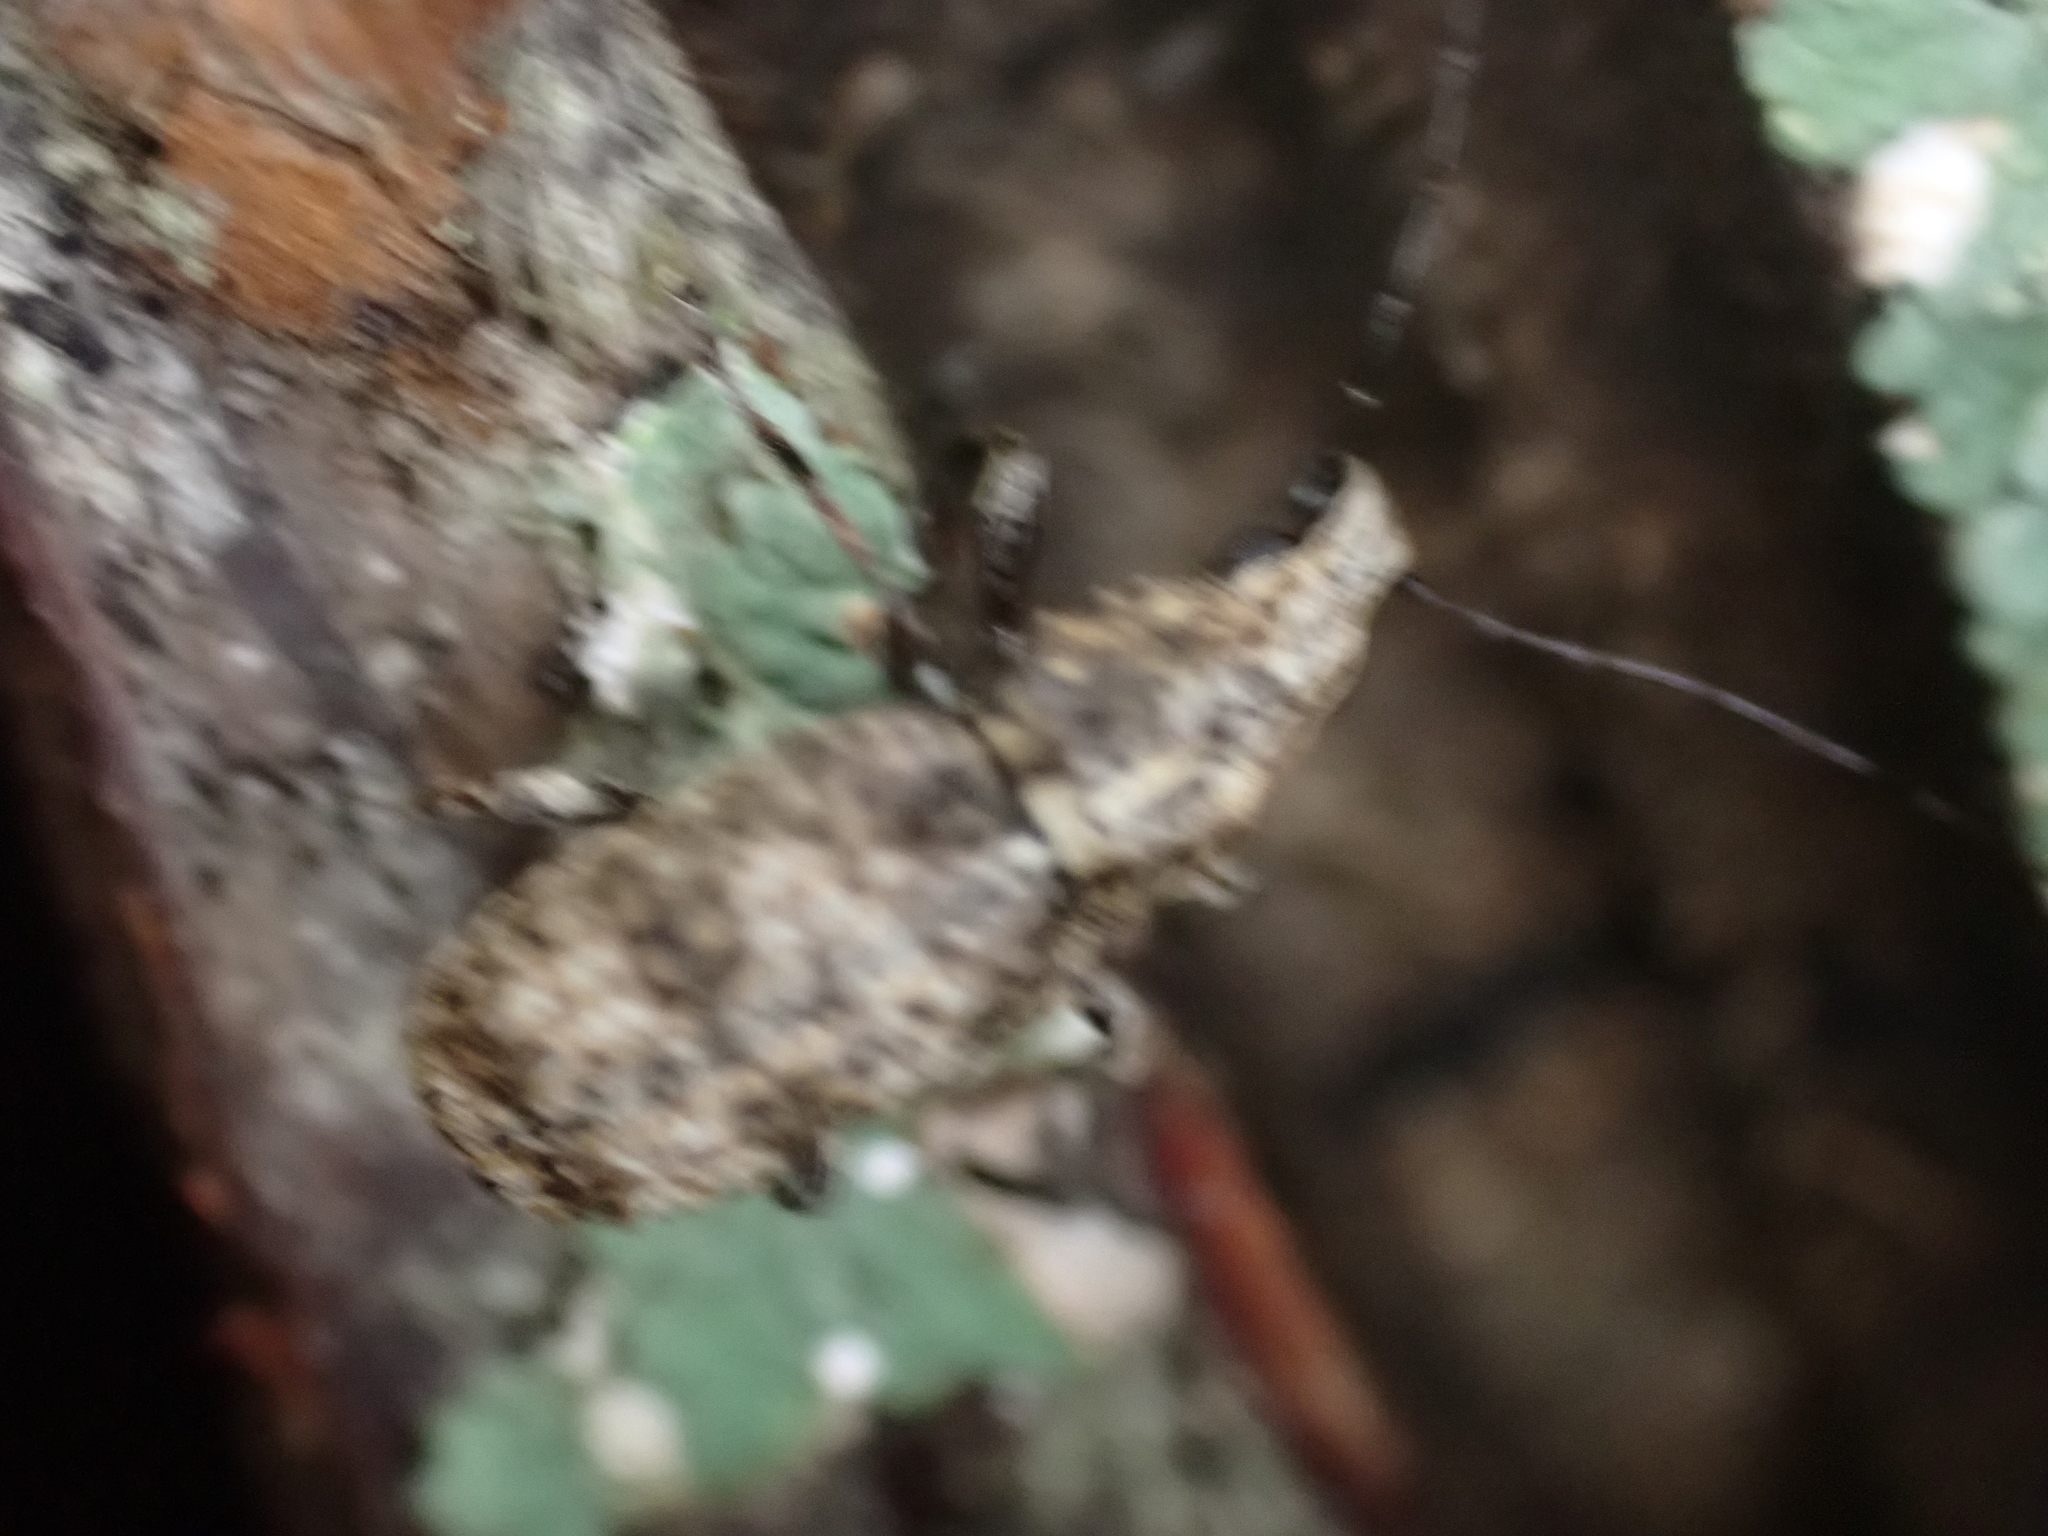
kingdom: Animalia
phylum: Arthropoda
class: Insecta
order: Coleoptera
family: Anthribidae
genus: Meconemus
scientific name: Meconemus infuscatus
